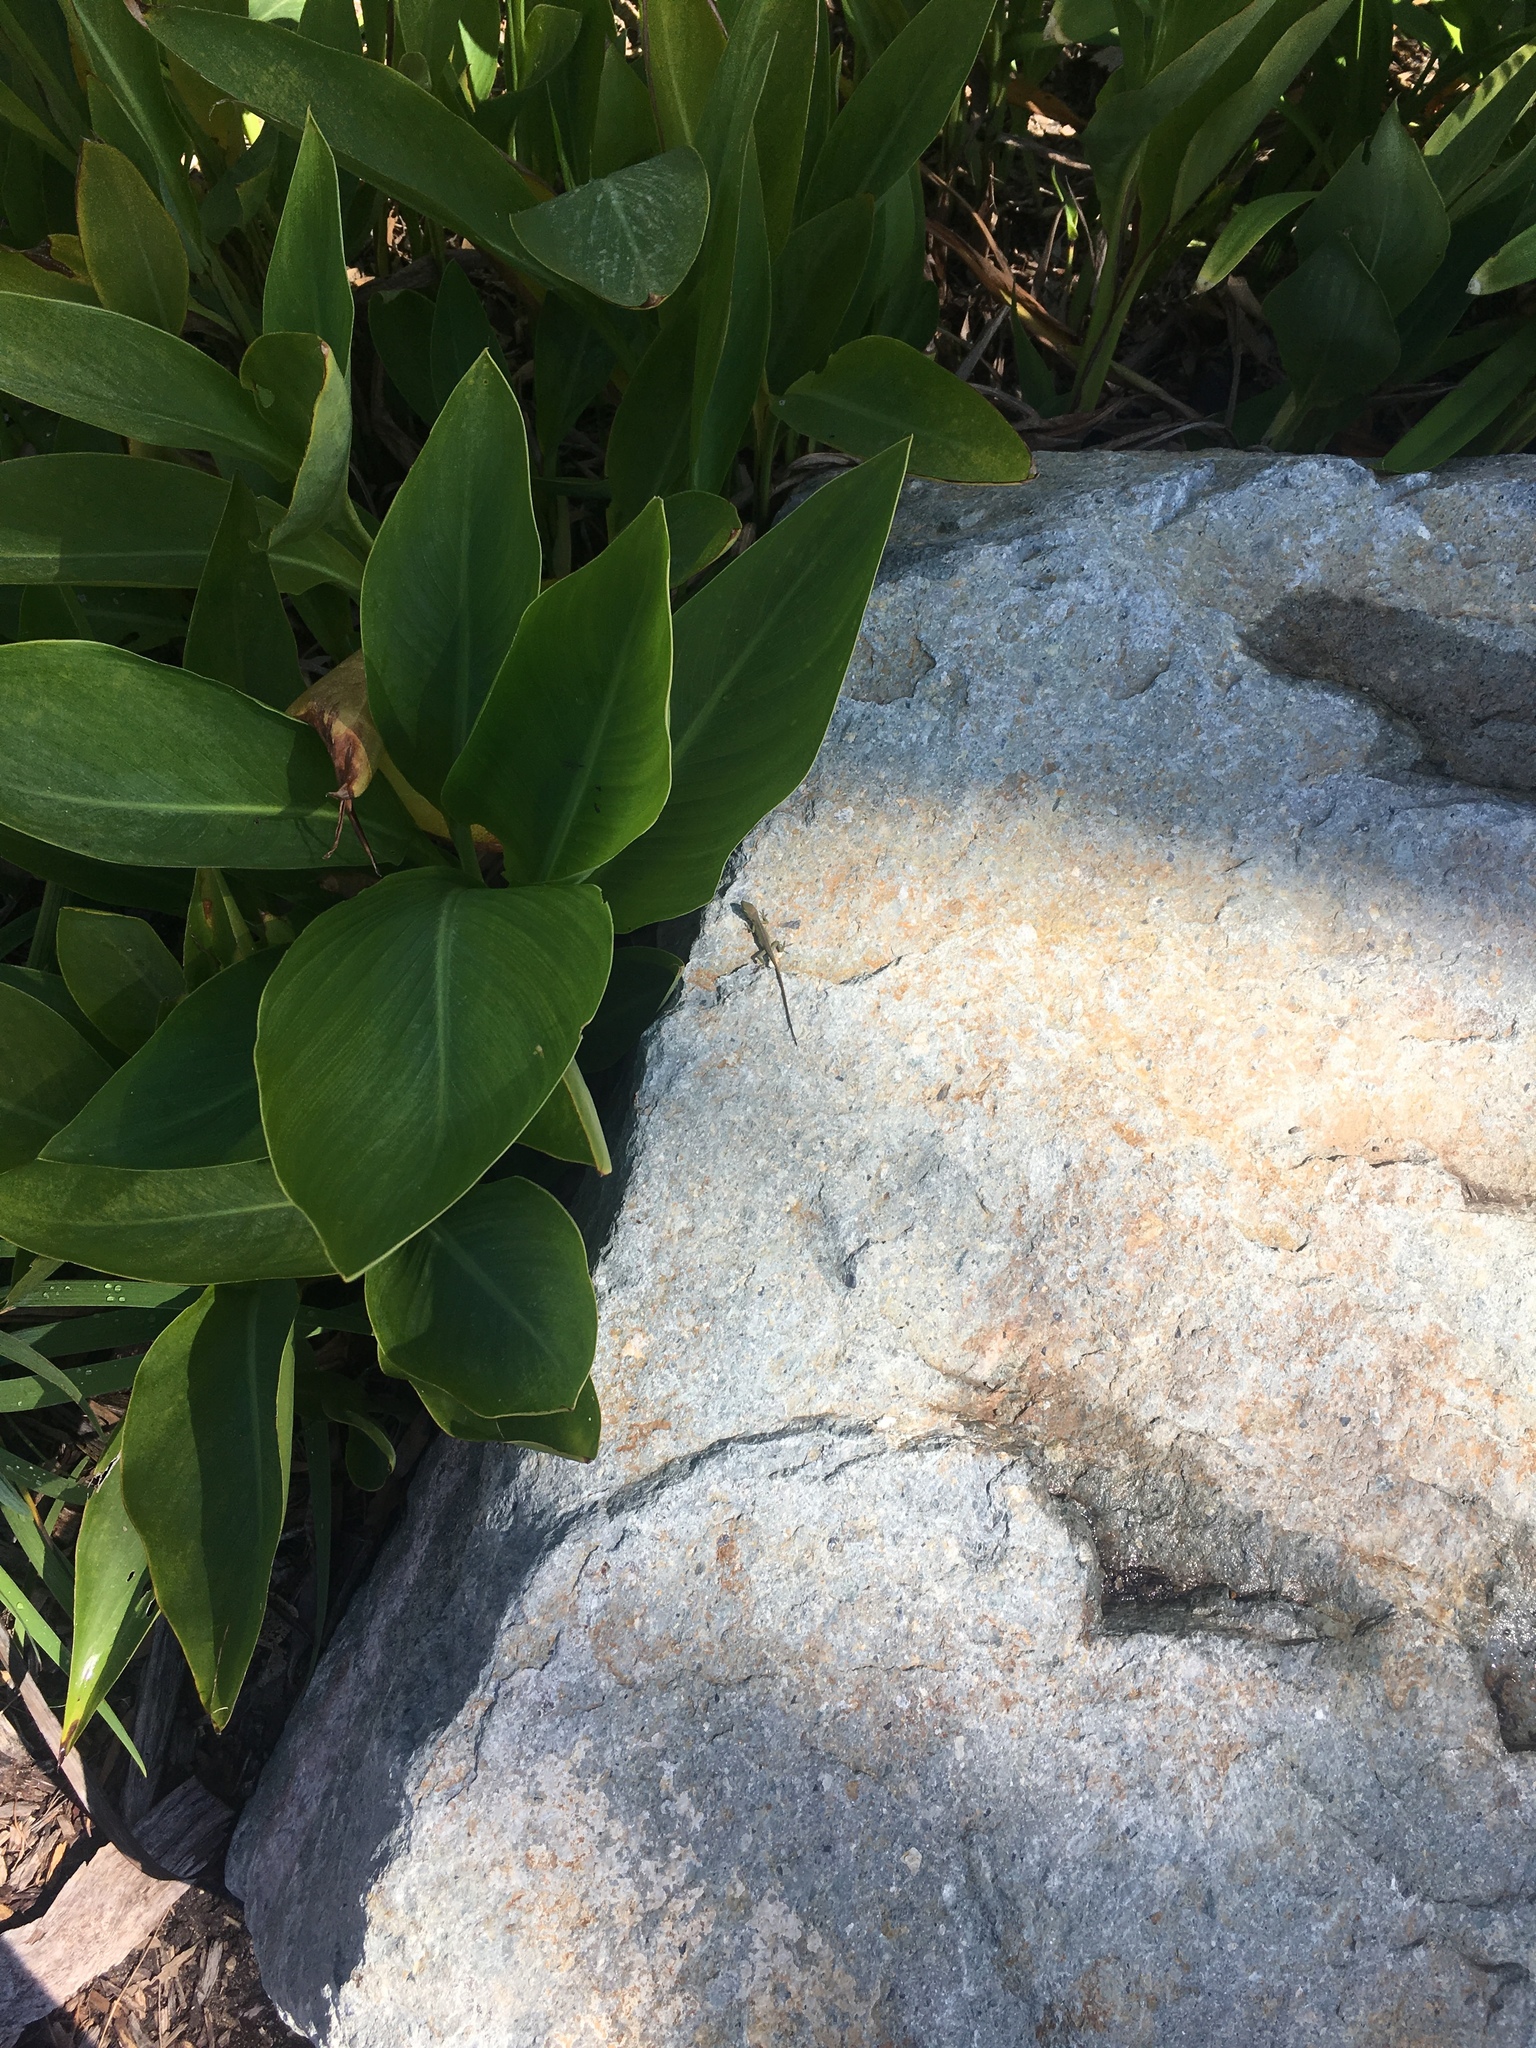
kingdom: Animalia
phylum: Chordata
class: Squamata
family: Dactyloidae
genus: Anolis
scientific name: Anolis carolinensis
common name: Green anole
